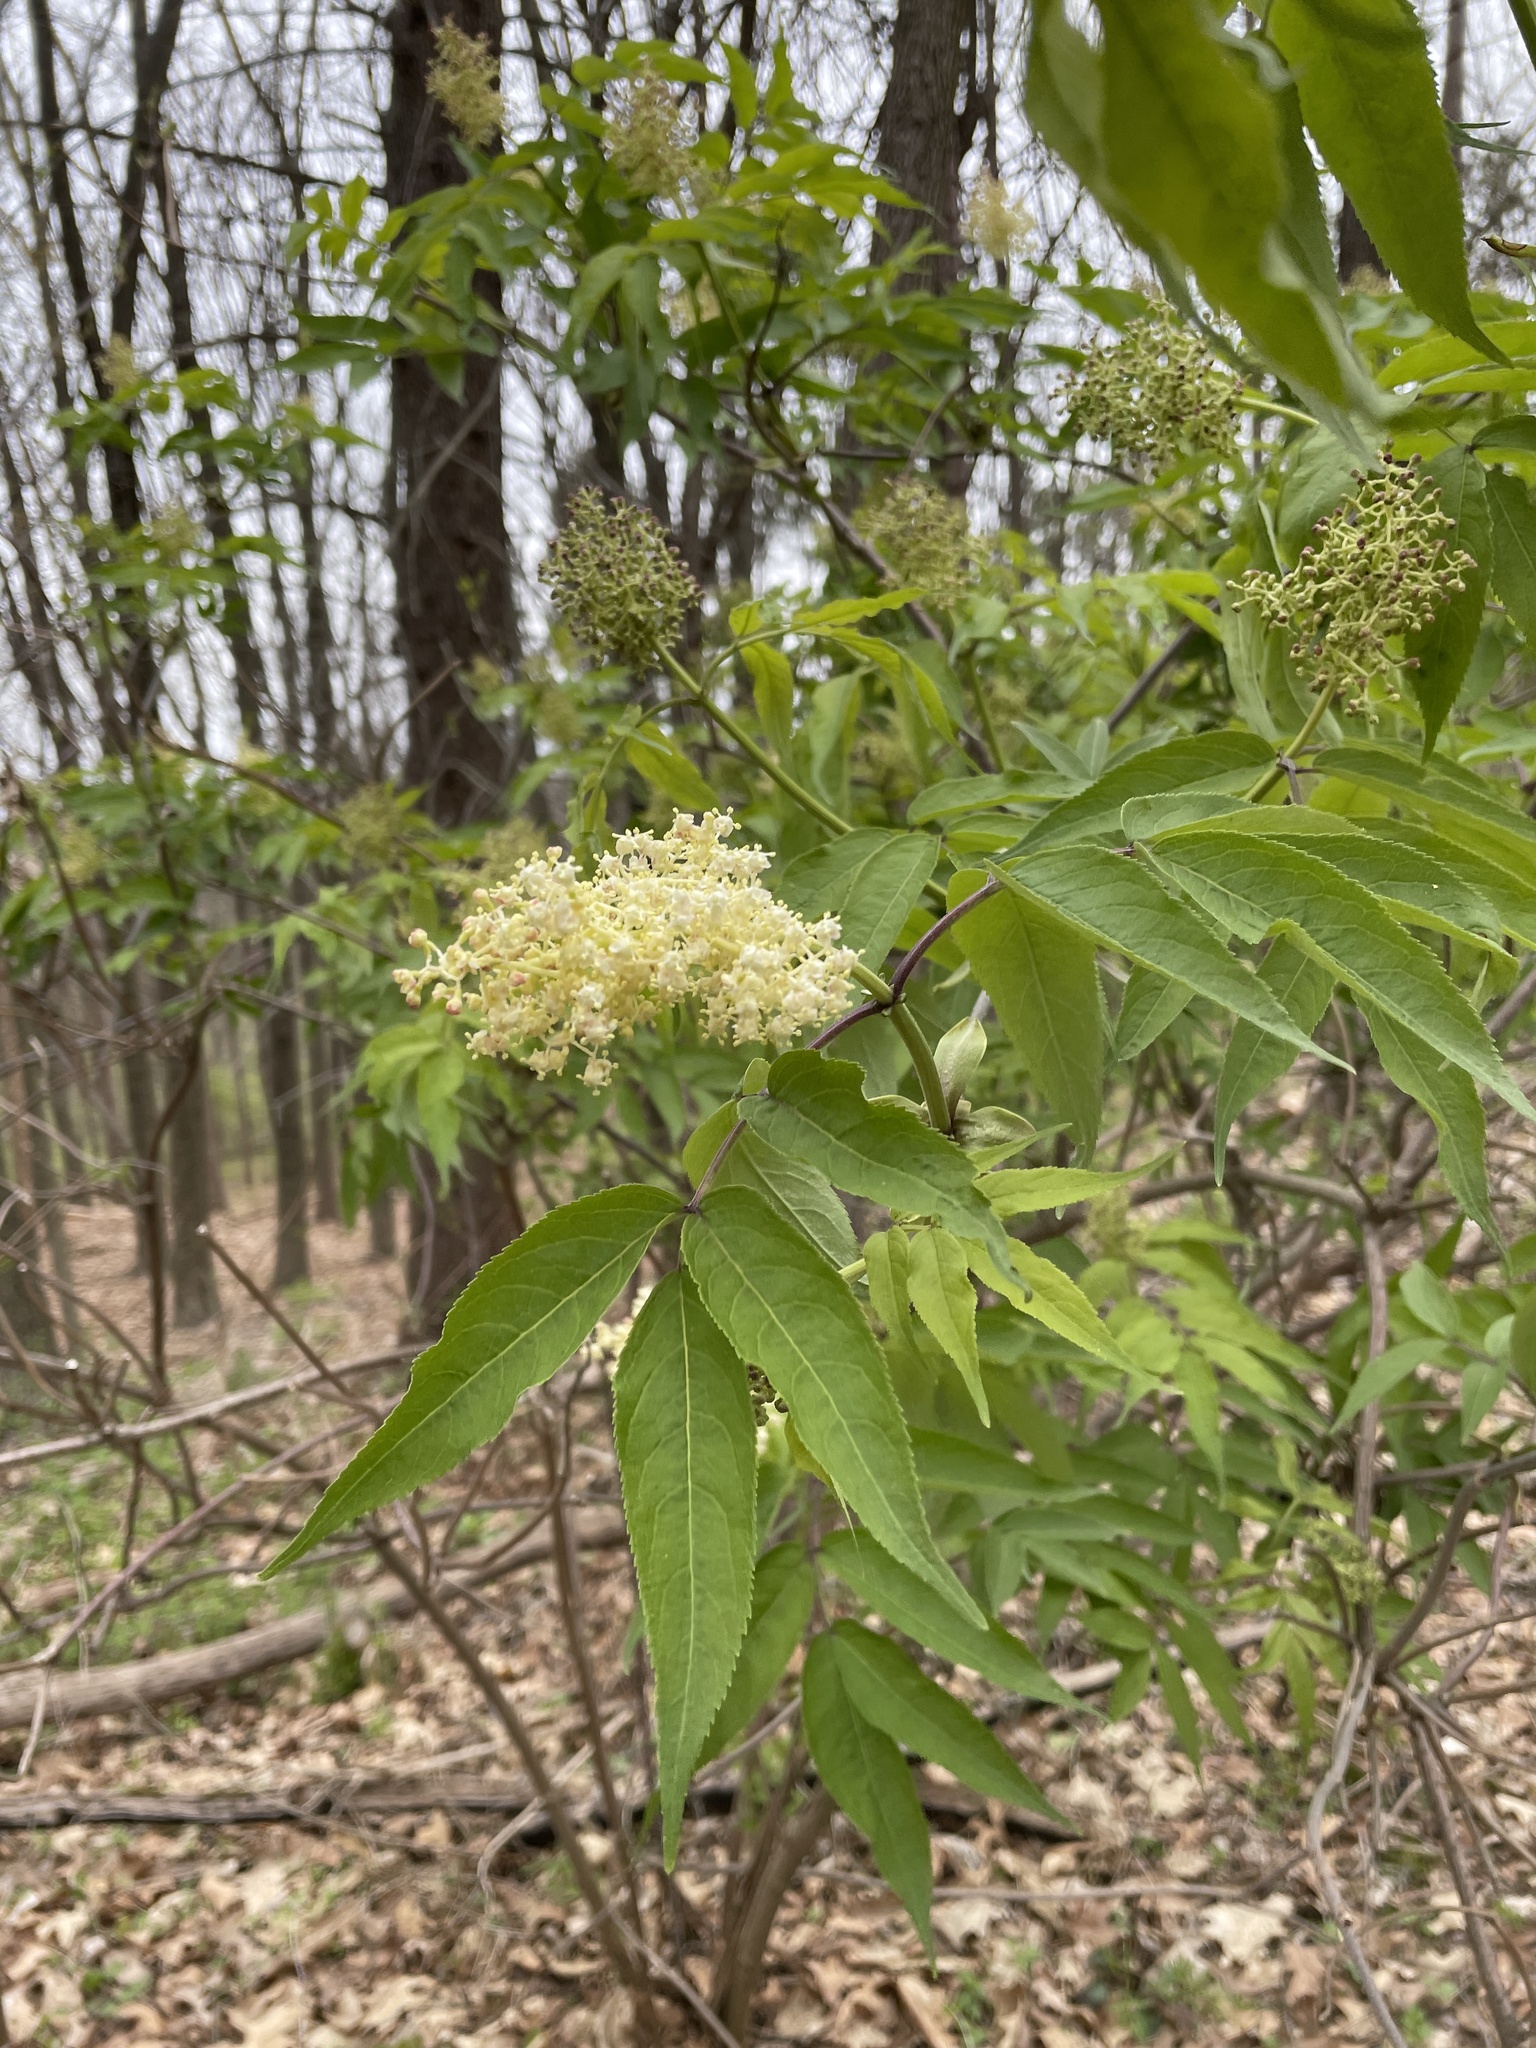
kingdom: Plantae
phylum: Tracheophyta
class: Magnoliopsida
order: Dipsacales
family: Viburnaceae
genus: Sambucus
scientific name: Sambucus racemosa
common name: Red-berried elder
